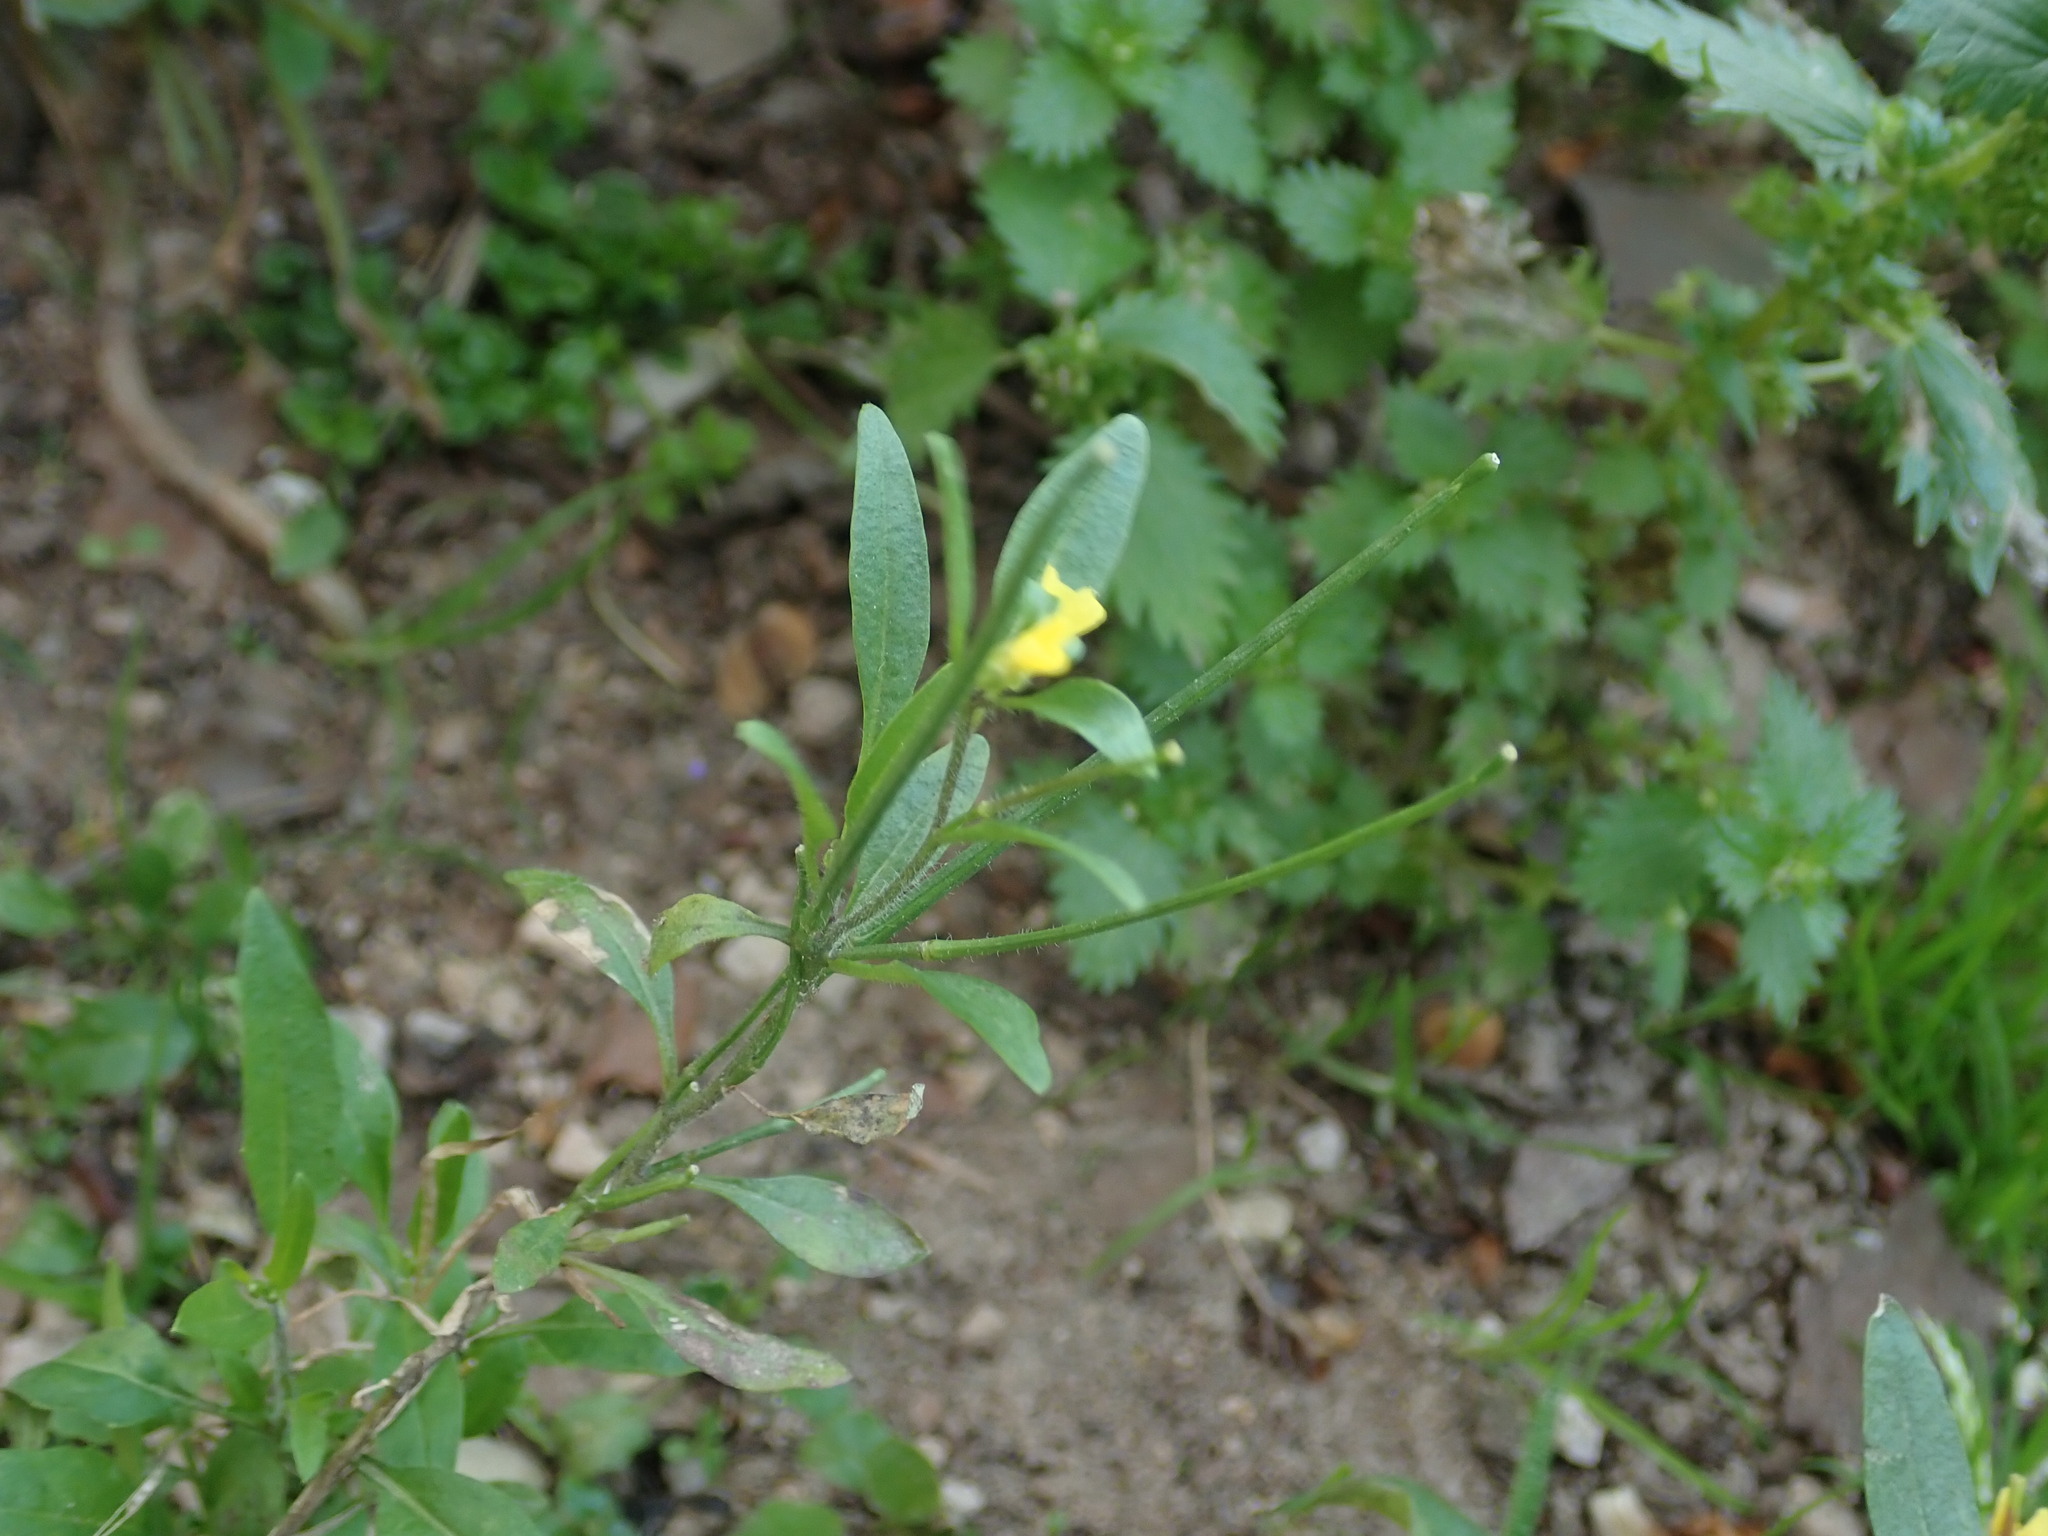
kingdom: Plantae
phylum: Tracheophyta
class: Magnoliopsida
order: Brassicales
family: Brassicaceae
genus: Sisymbrium
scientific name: Sisymbrium orientale
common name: Eastern rocket
